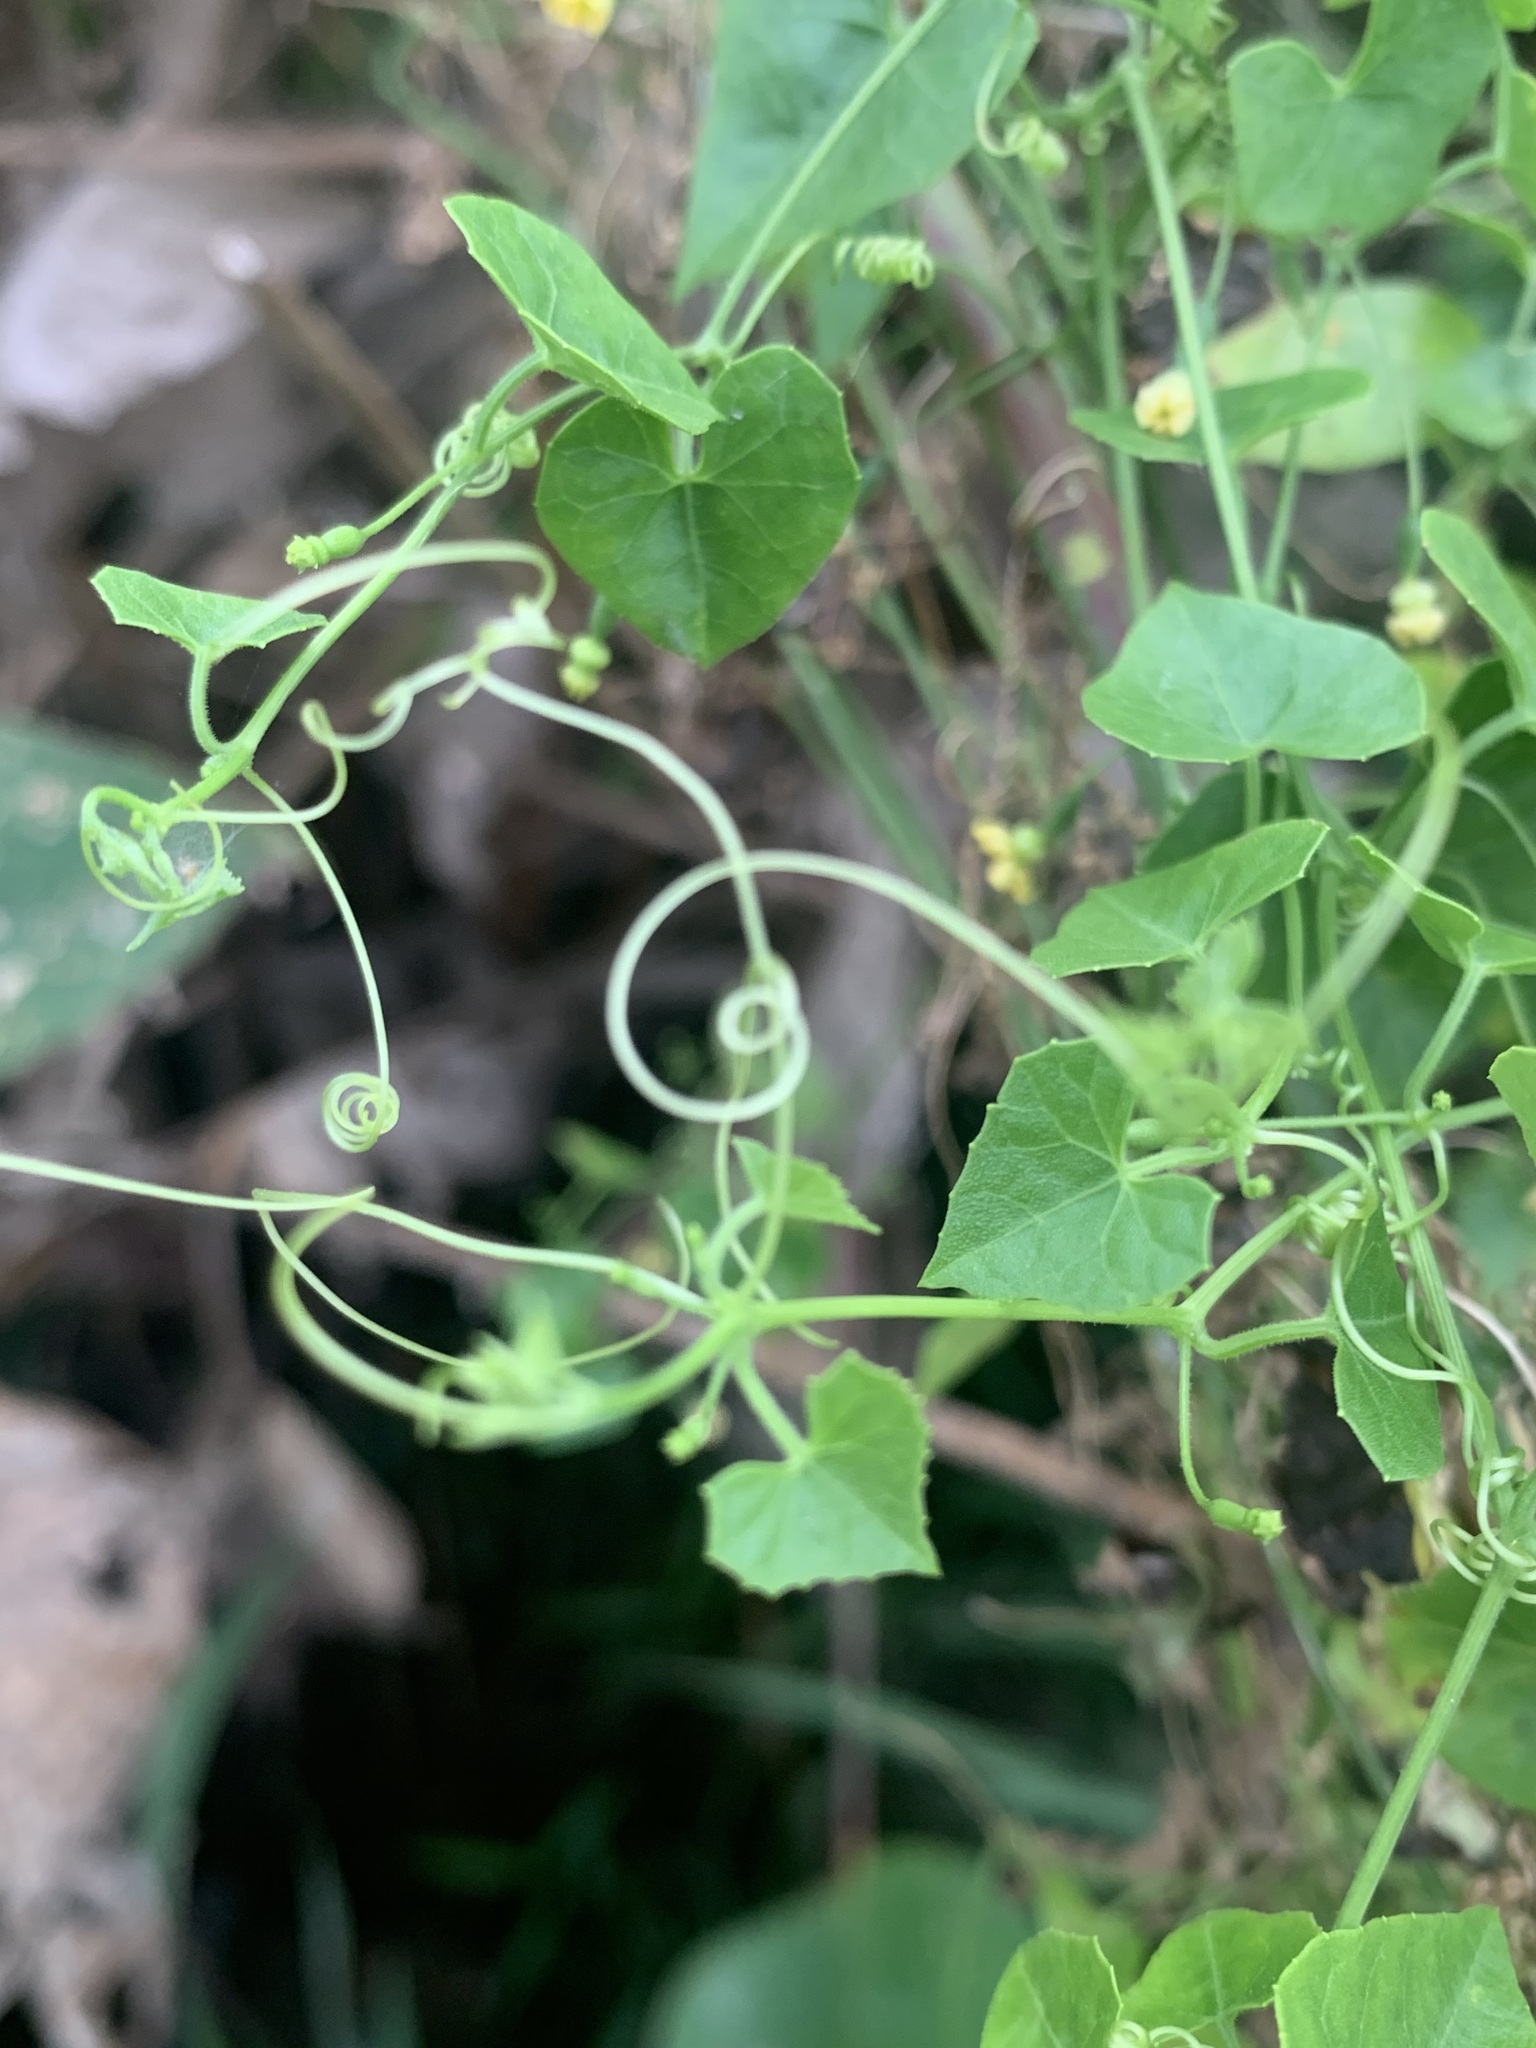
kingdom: Plantae
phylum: Tracheophyta
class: Magnoliopsida
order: Cucurbitales
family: Cucurbitaceae
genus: Melothria
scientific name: Melothria pendula
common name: Creeping-cucumber
